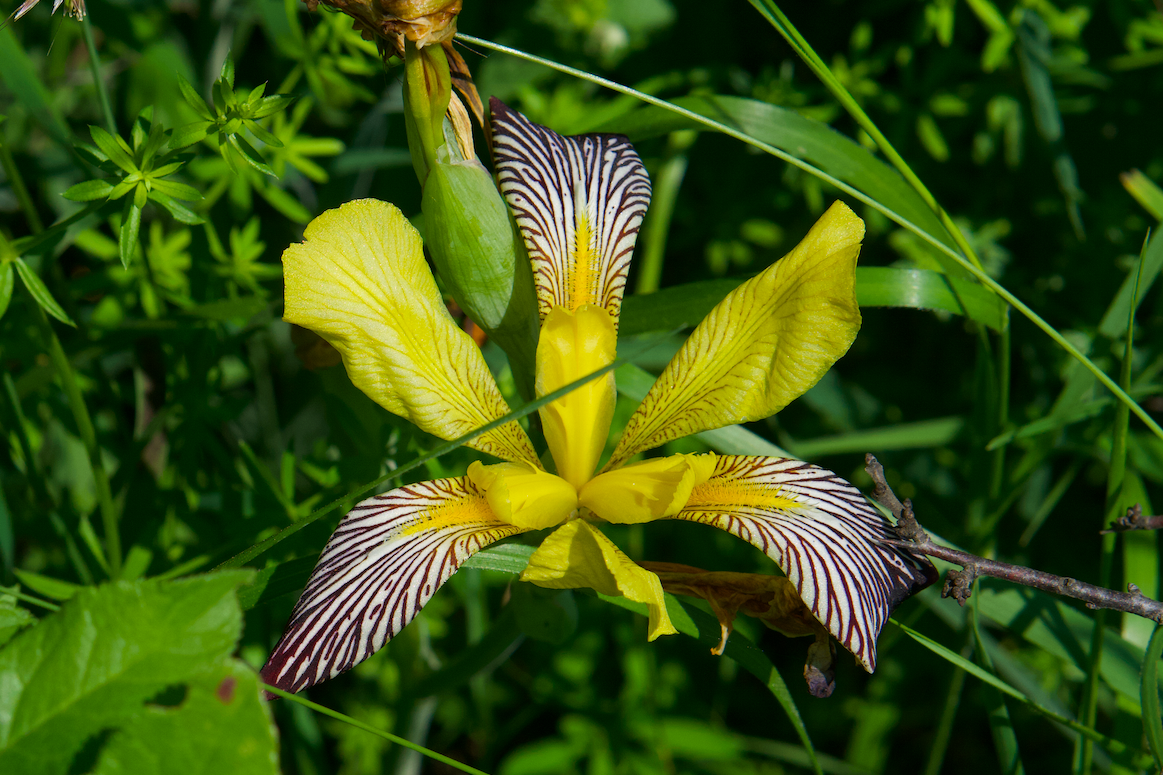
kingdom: Plantae
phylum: Tracheophyta
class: Liliopsida
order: Asparagales
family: Iridaceae
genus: Iris
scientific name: Iris variegata
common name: Hungarian iris
